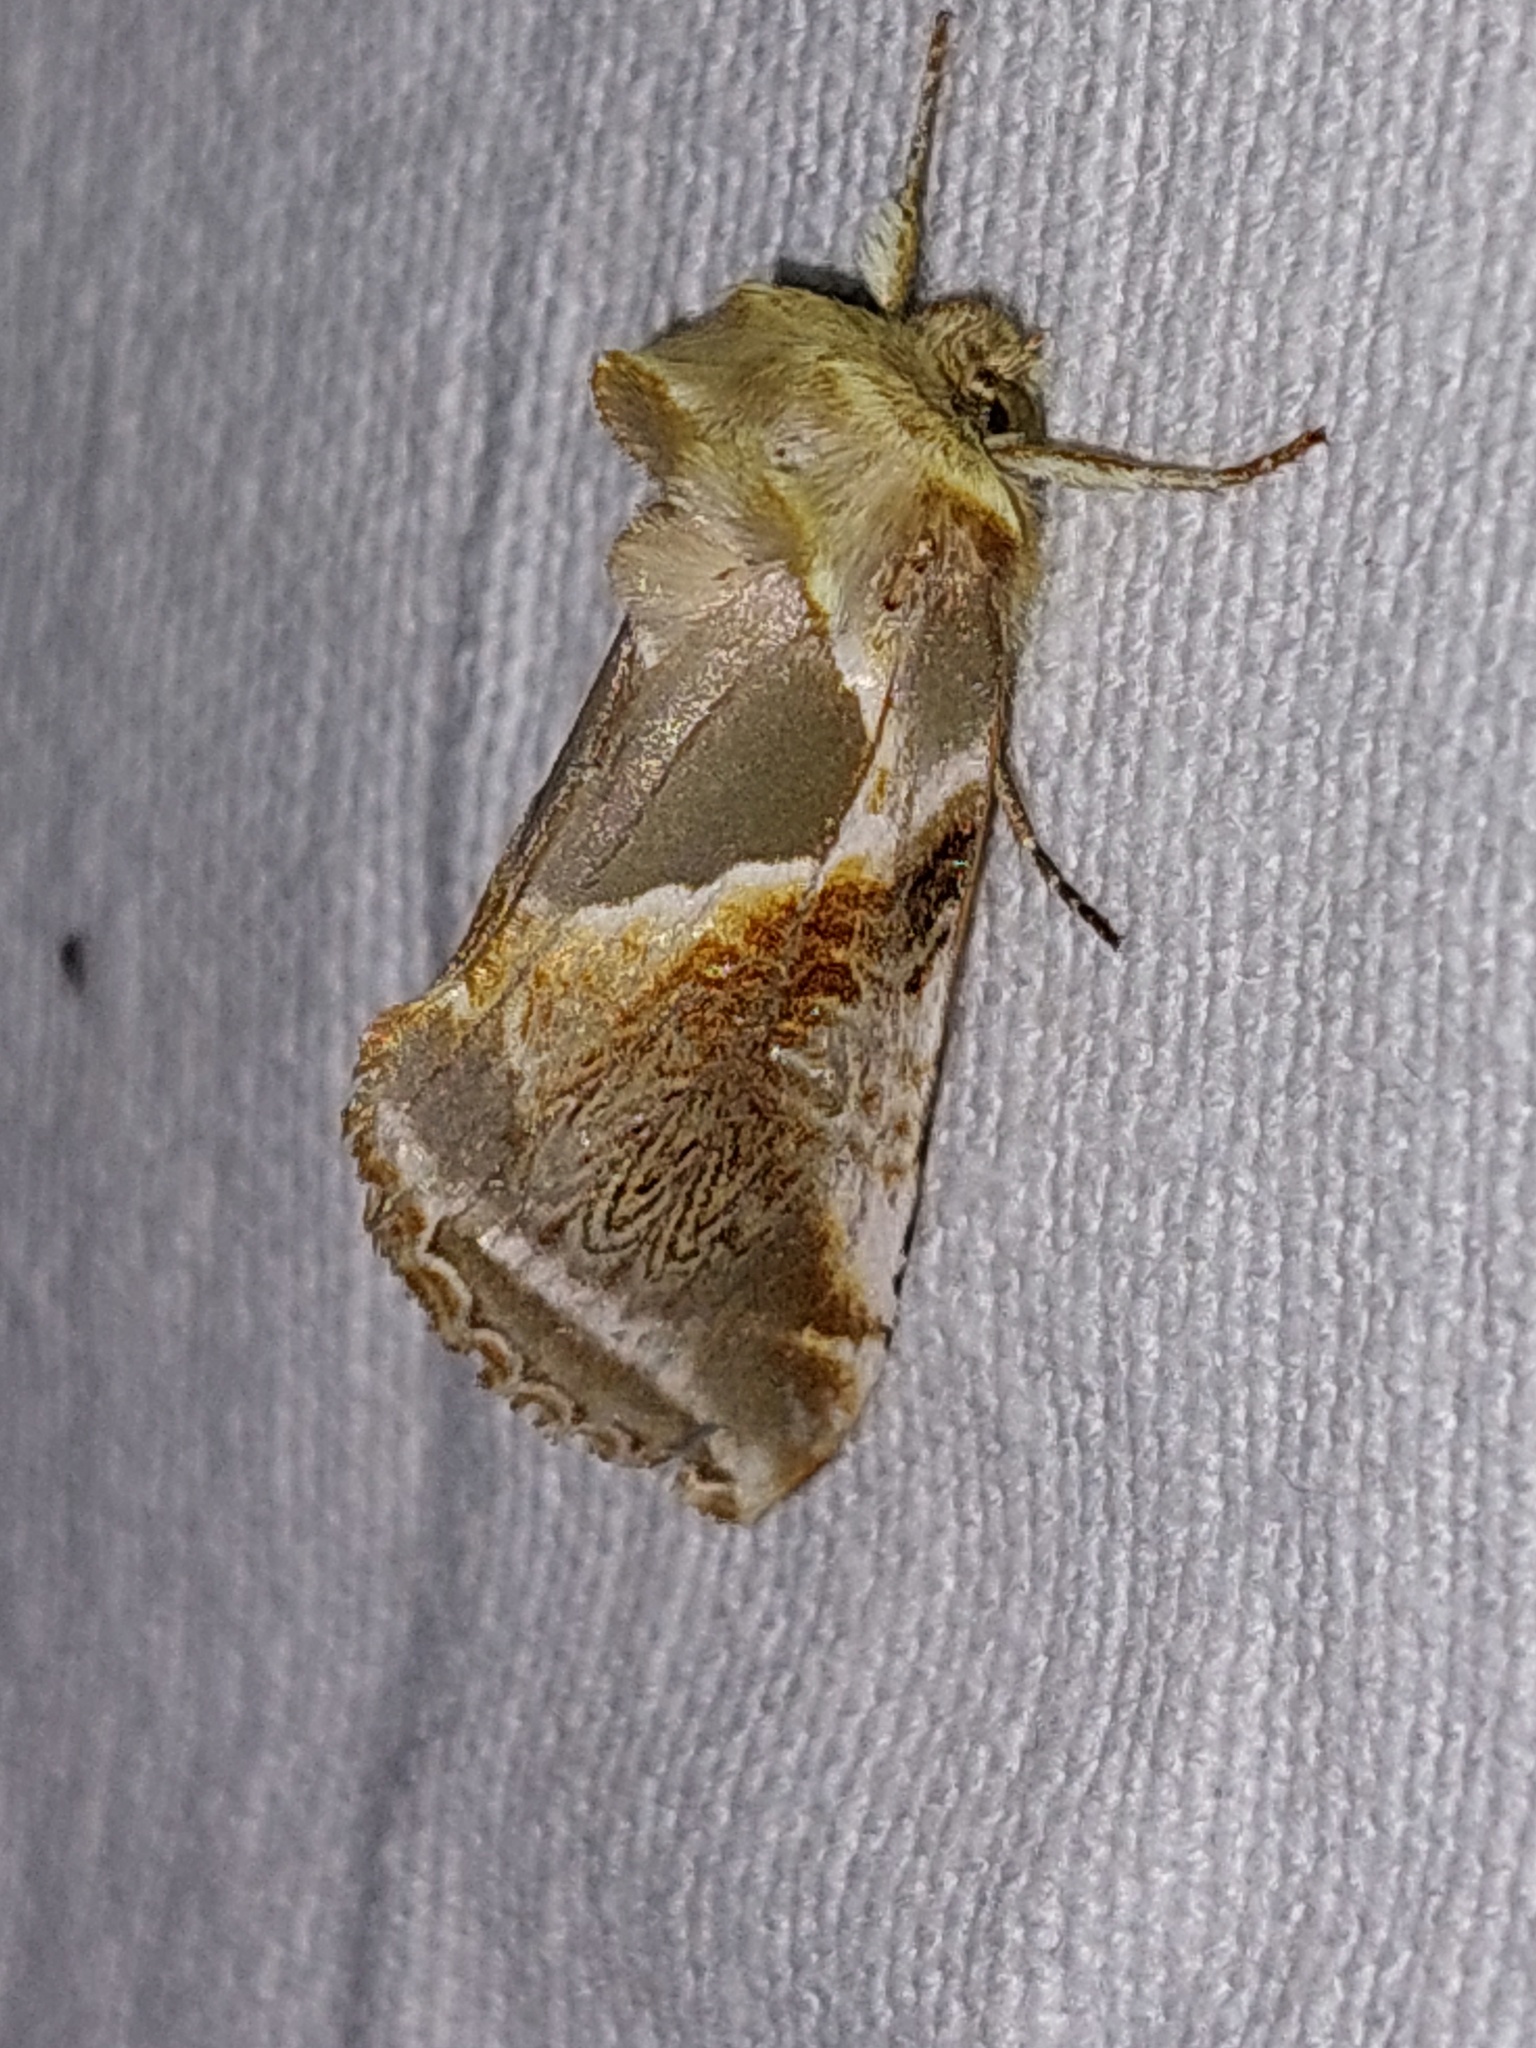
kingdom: Animalia
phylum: Arthropoda
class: Insecta
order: Lepidoptera
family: Drepanidae
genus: Habrosyne
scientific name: Habrosyne pyritoides
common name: Buff arches
